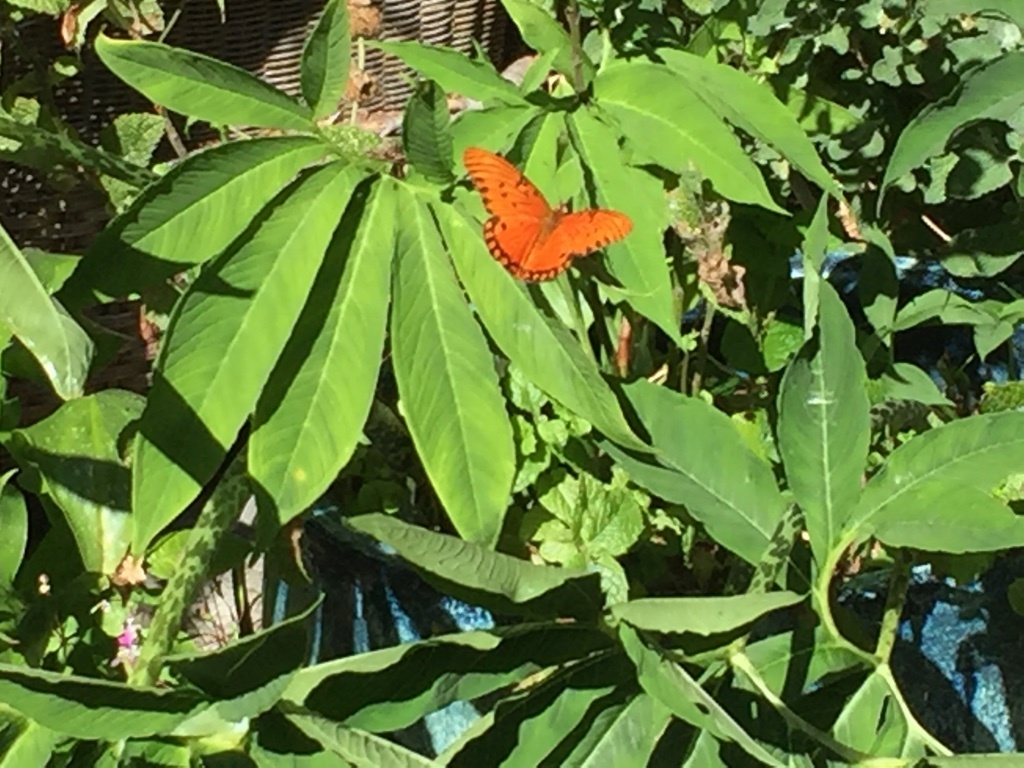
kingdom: Animalia
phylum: Arthropoda
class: Insecta
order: Lepidoptera
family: Nymphalidae
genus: Dione
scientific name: Dione vanillae
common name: Gulf fritillary
